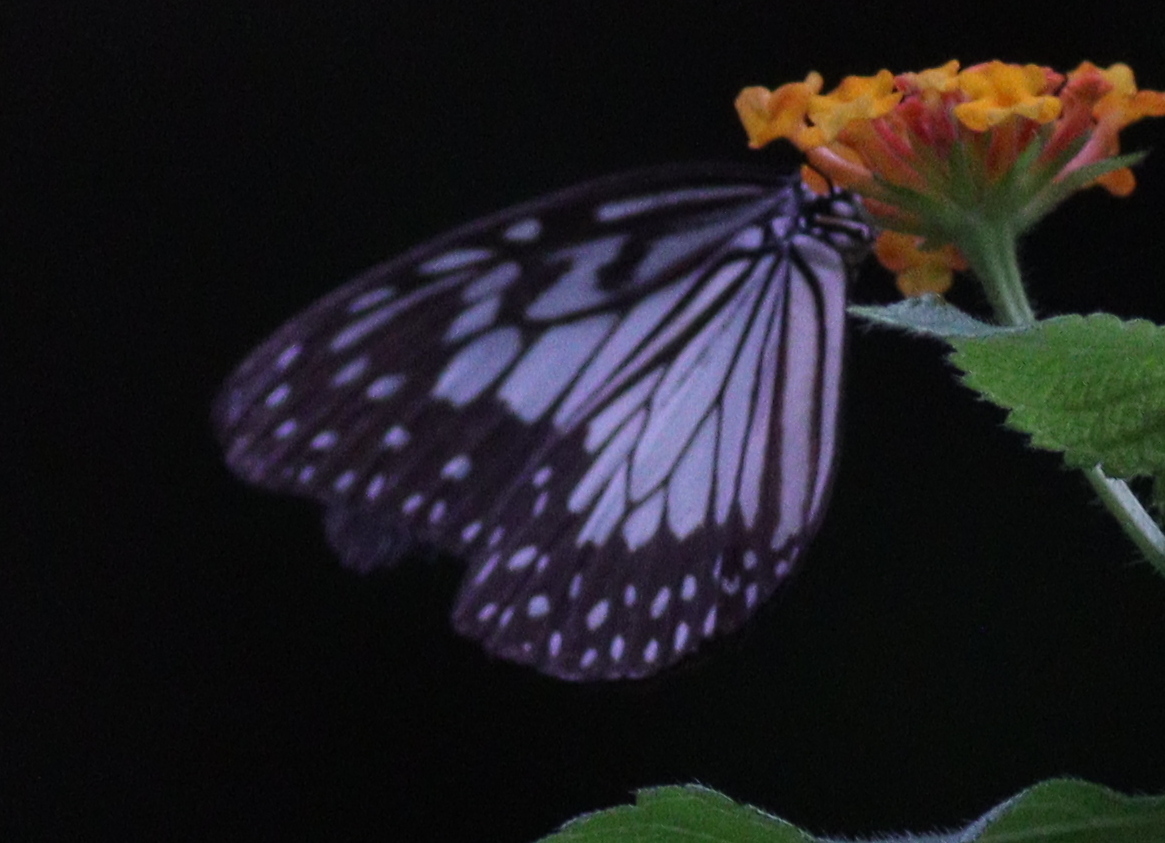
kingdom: Animalia
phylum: Arthropoda
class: Insecta
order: Lepidoptera
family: Nymphalidae
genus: Ideopsis
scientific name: Ideopsis juventa
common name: Grey glassy tiger
